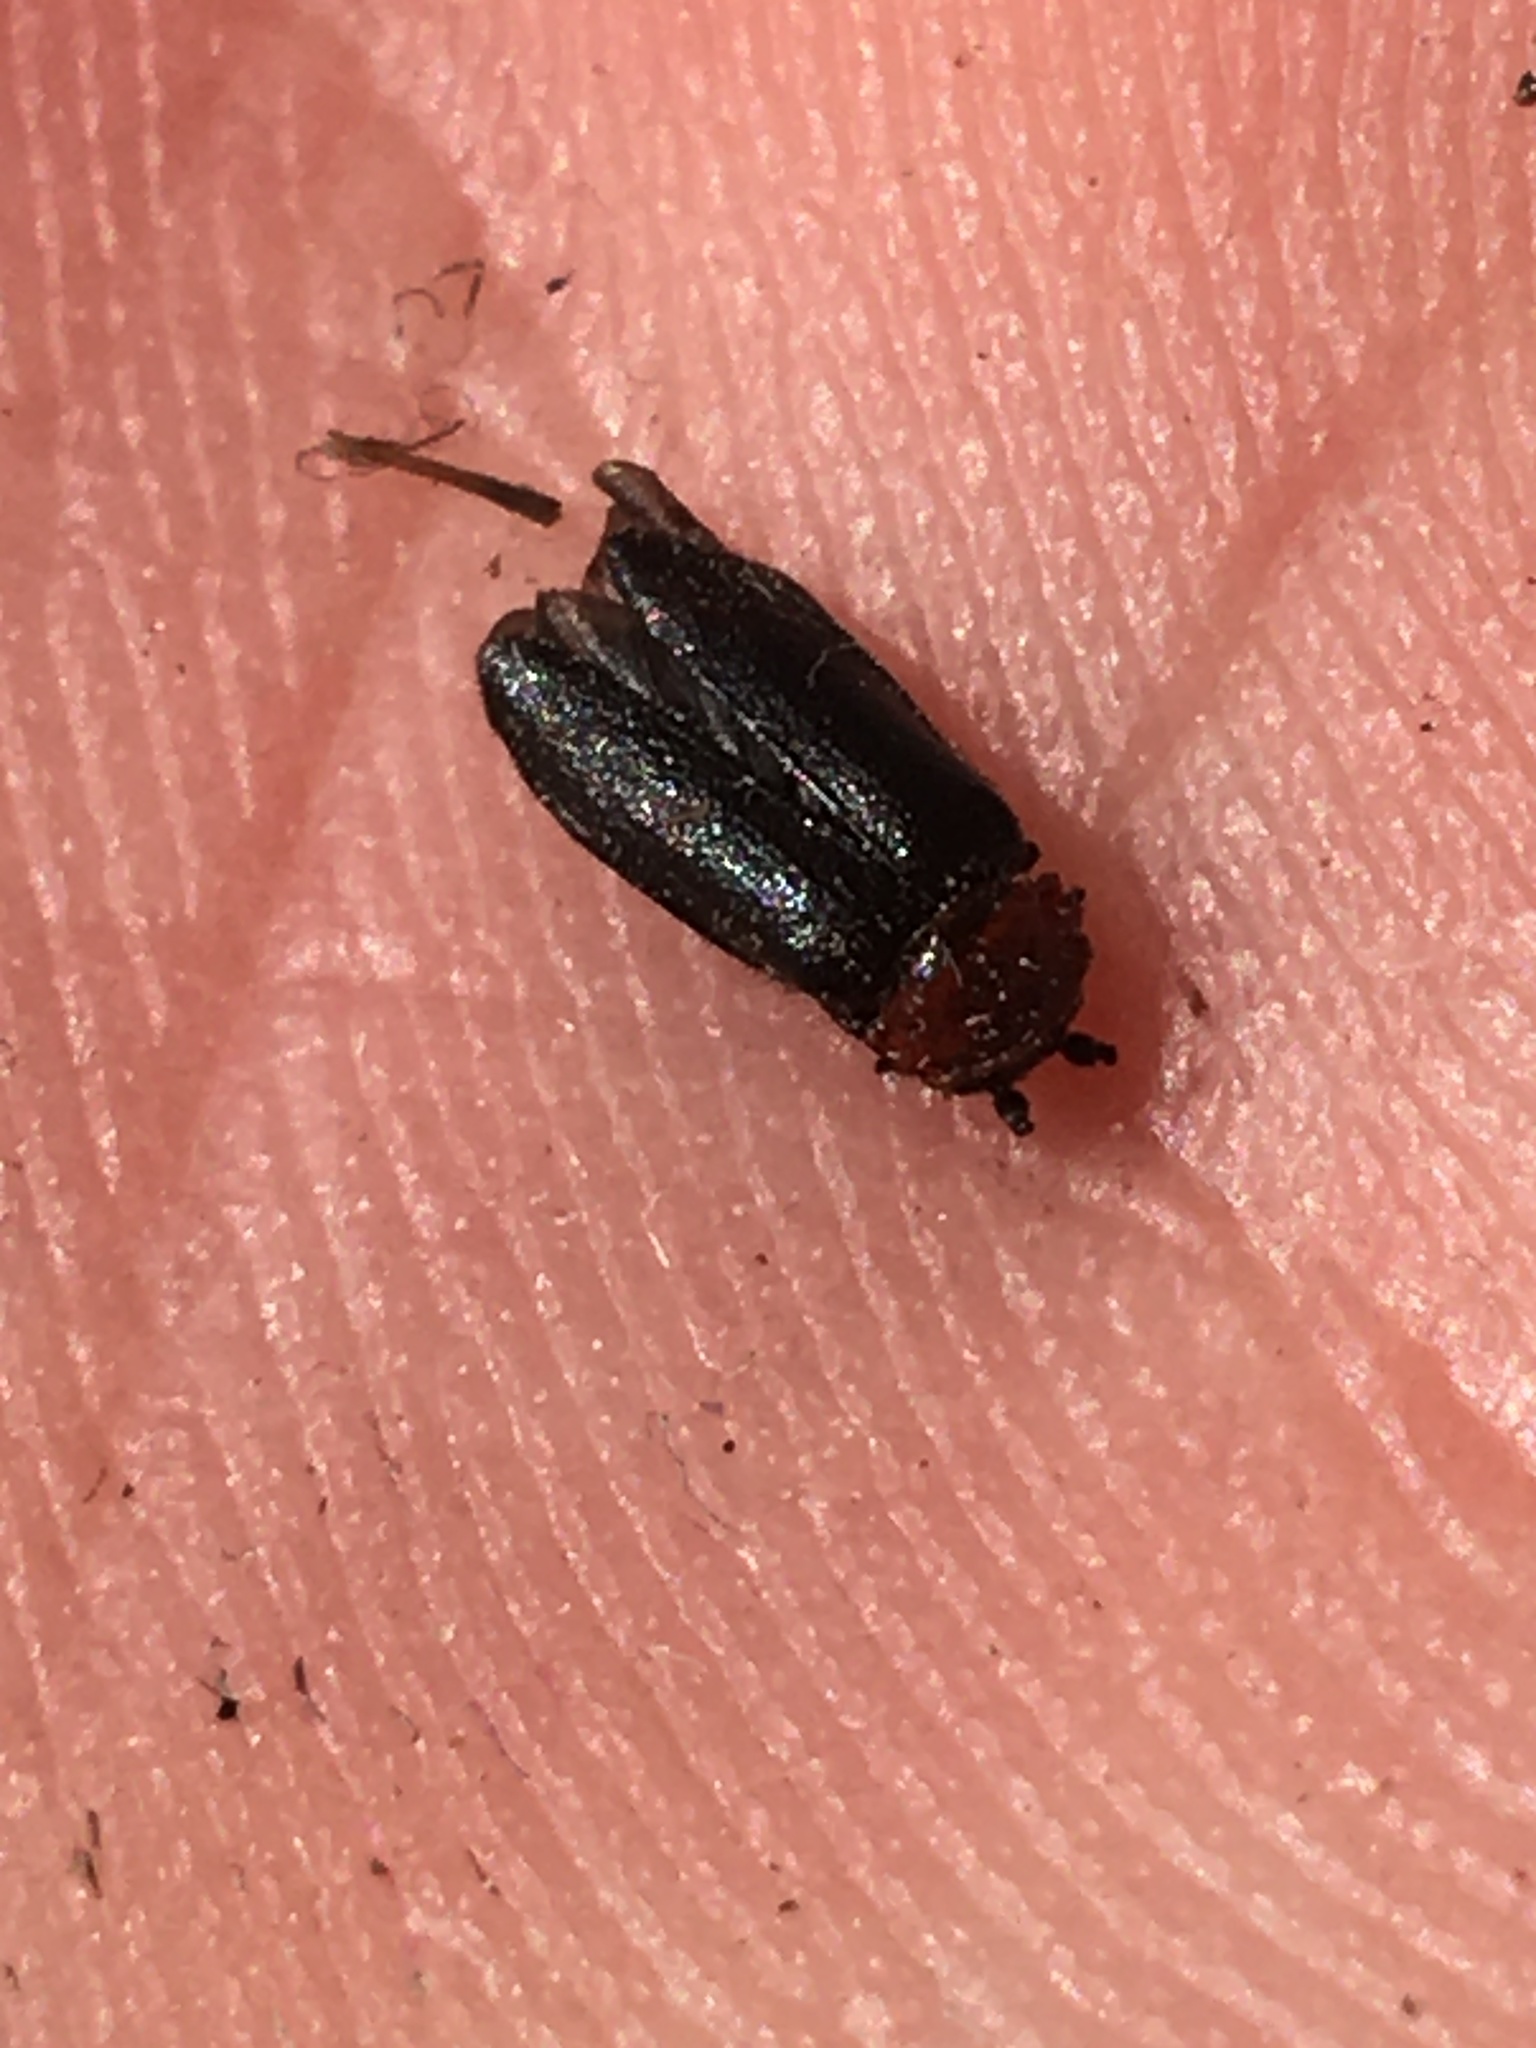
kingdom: Animalia
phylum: Arthropoda
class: Insecta
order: Coleoptera
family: Cantharidae
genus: Ditemnus
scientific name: Ditemnus bidentatus
